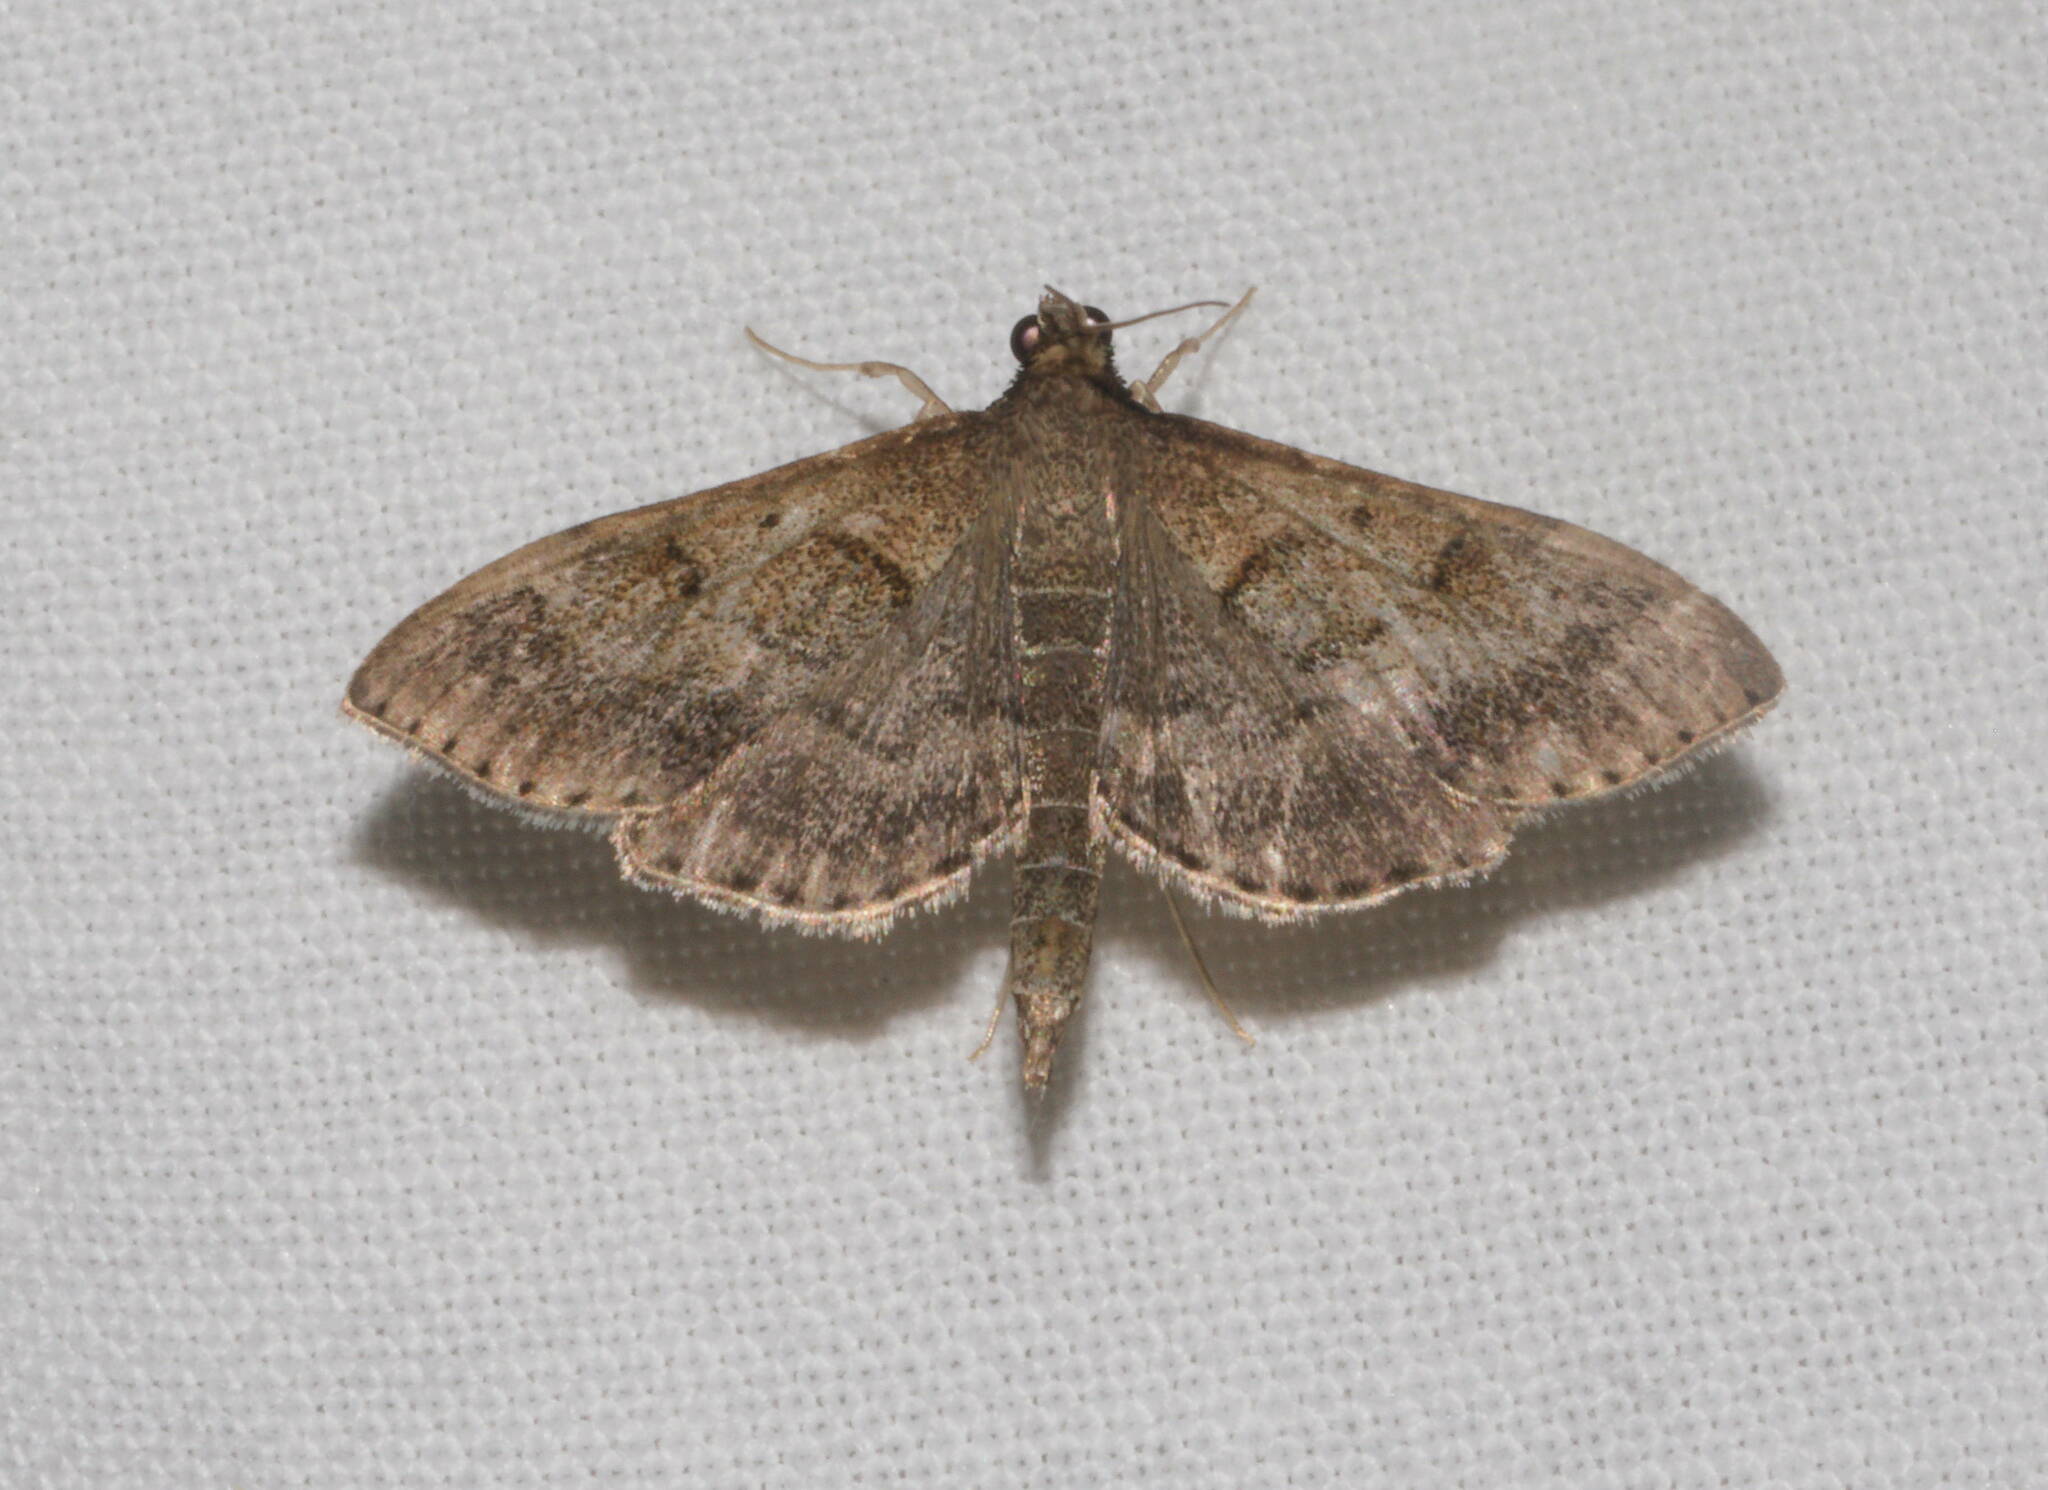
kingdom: Animalia
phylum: Arthropoda
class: Insecta
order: Lepidoptera
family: Crambidae
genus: Omiodes
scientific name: Omiodes localis
